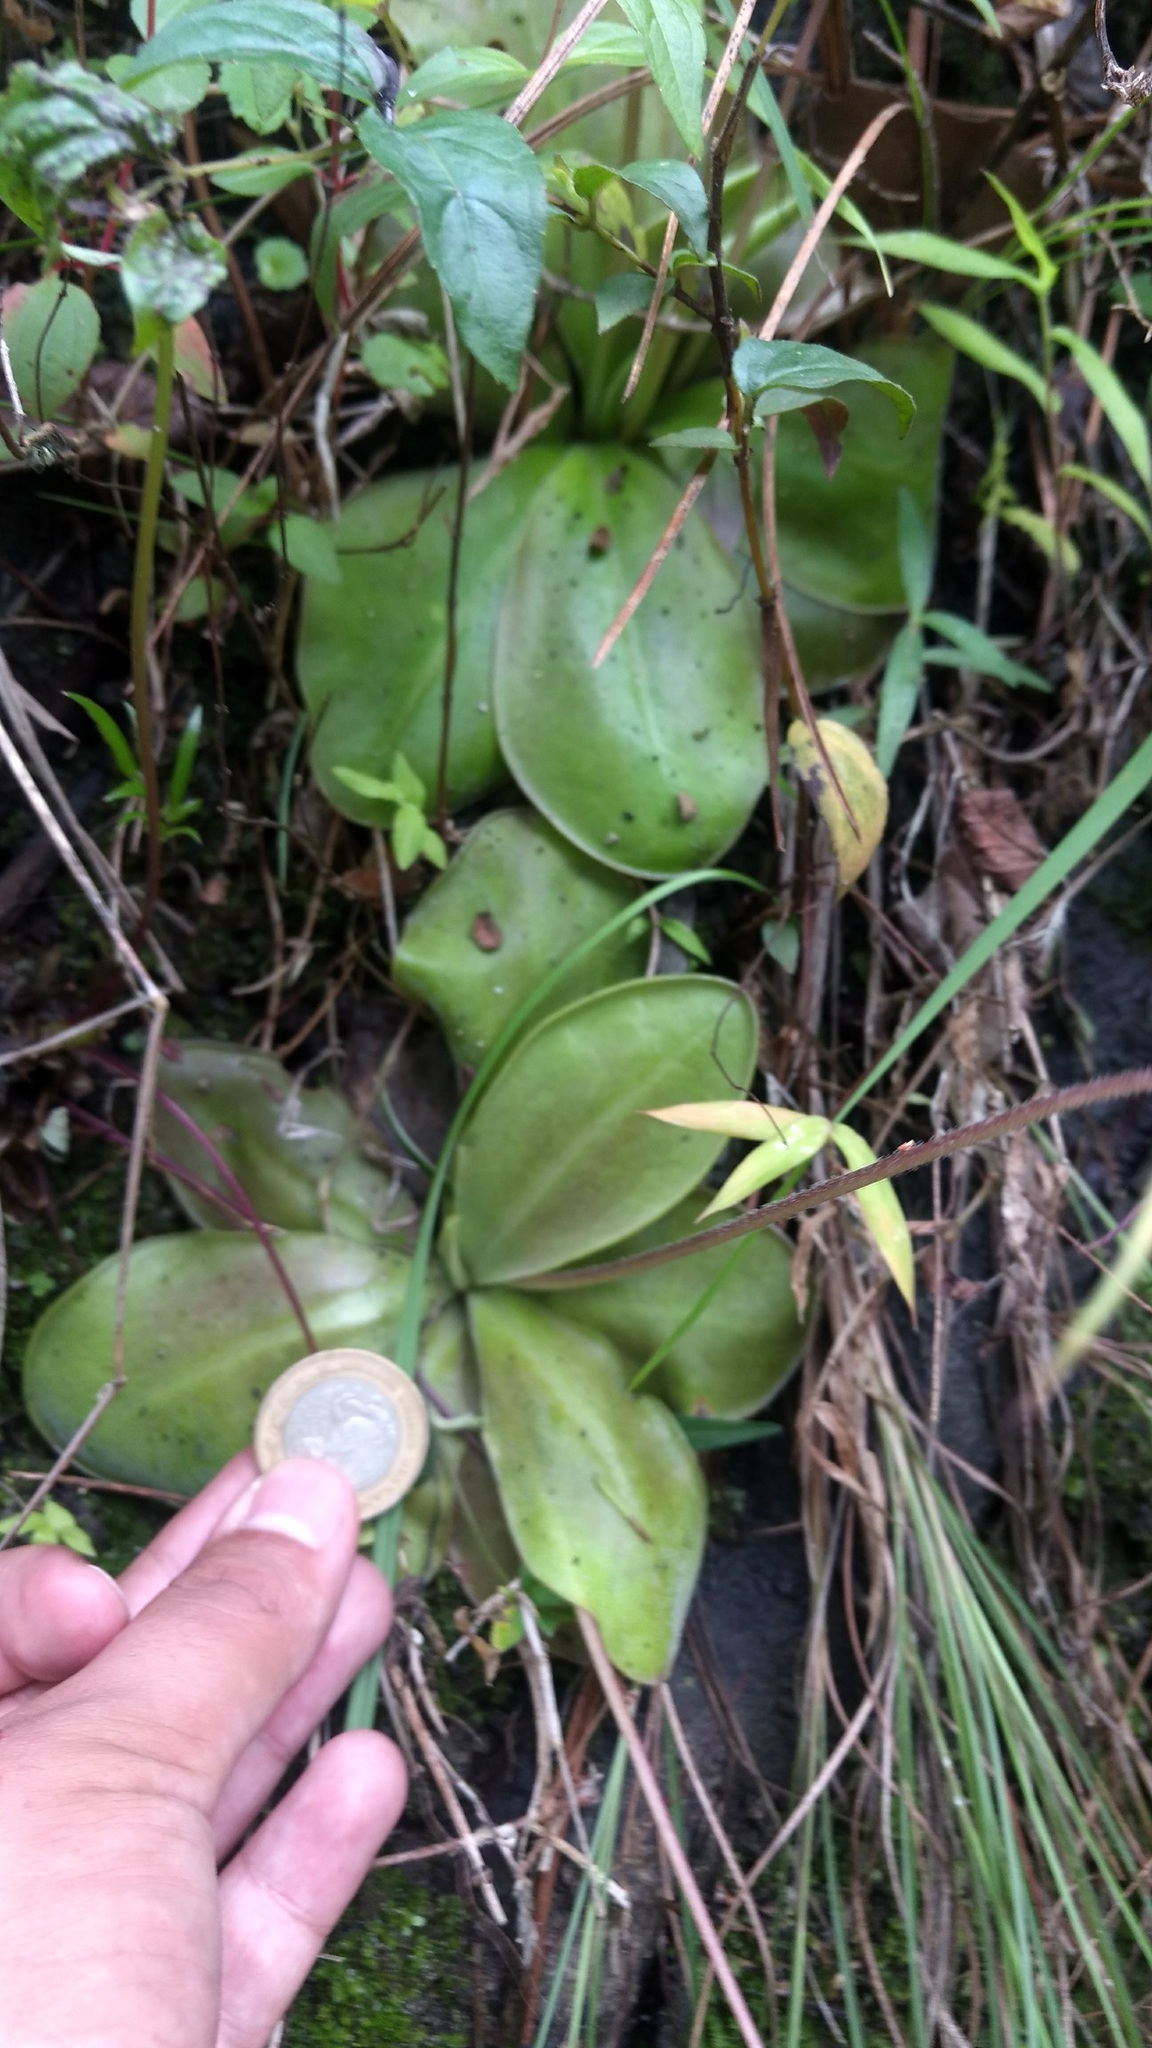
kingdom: Plantae
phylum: Tracheophyta
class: Magnoliopsida
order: Lamiales
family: Lentibulariaceae
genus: Pinguicula
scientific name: Pinguicula moranensis
